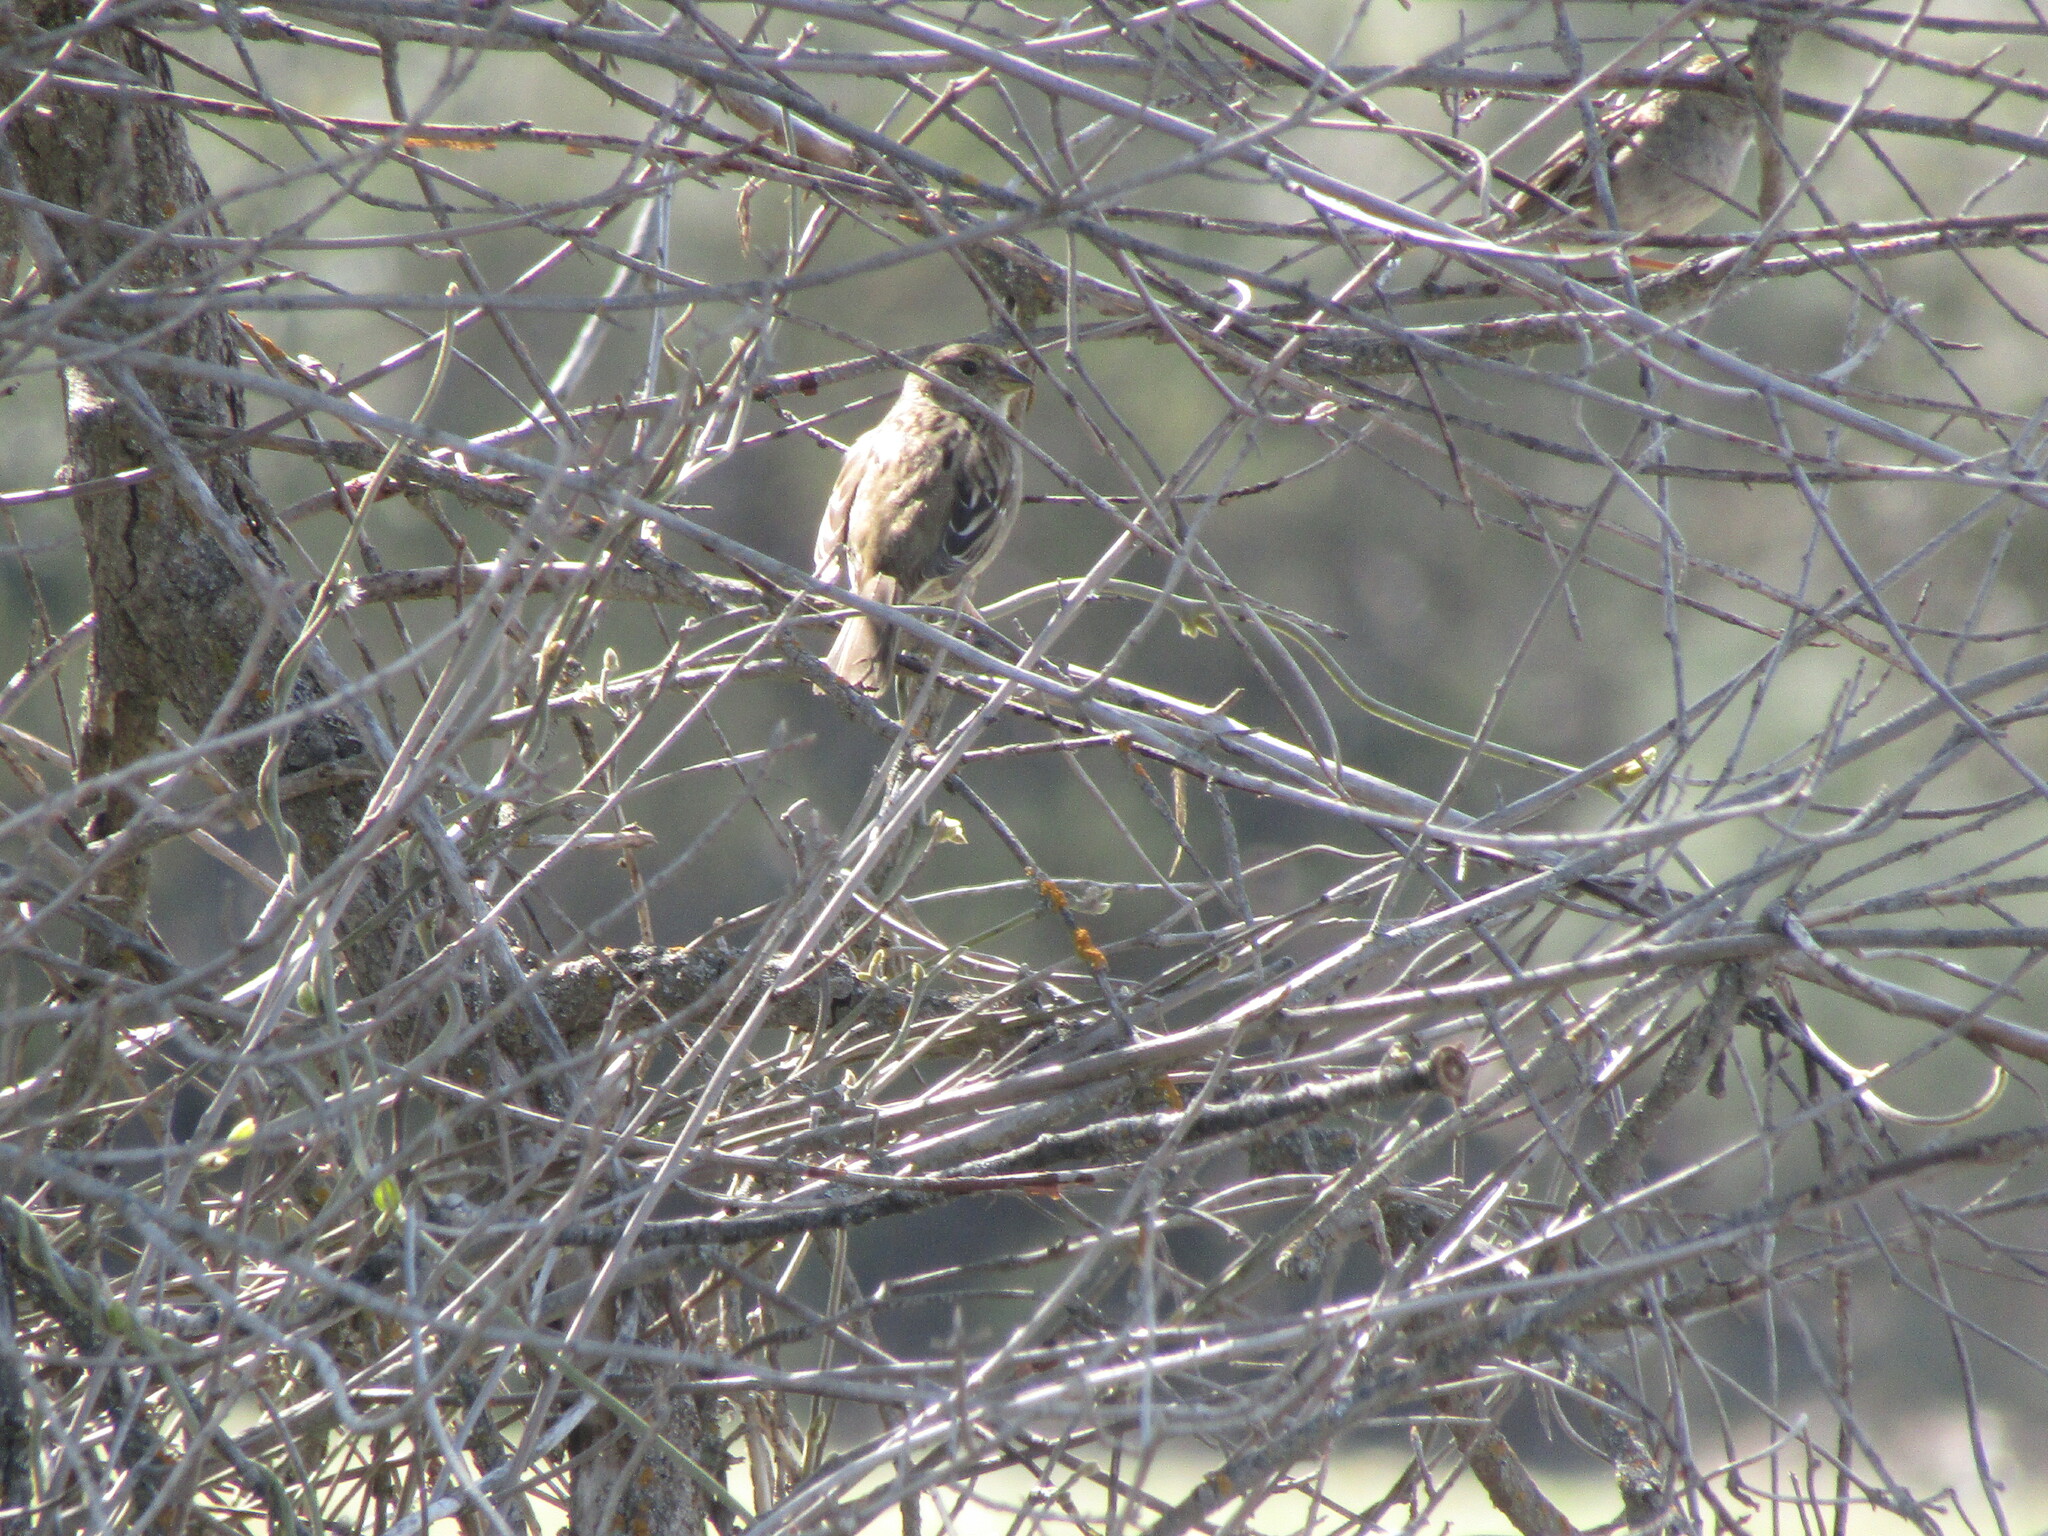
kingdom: Animalia
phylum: Chordata
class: Aves
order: Passeriformes
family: Passerellidae
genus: Zonotrichia
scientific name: Zonotrichia atricapilla
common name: Golden-crowned sparrow
